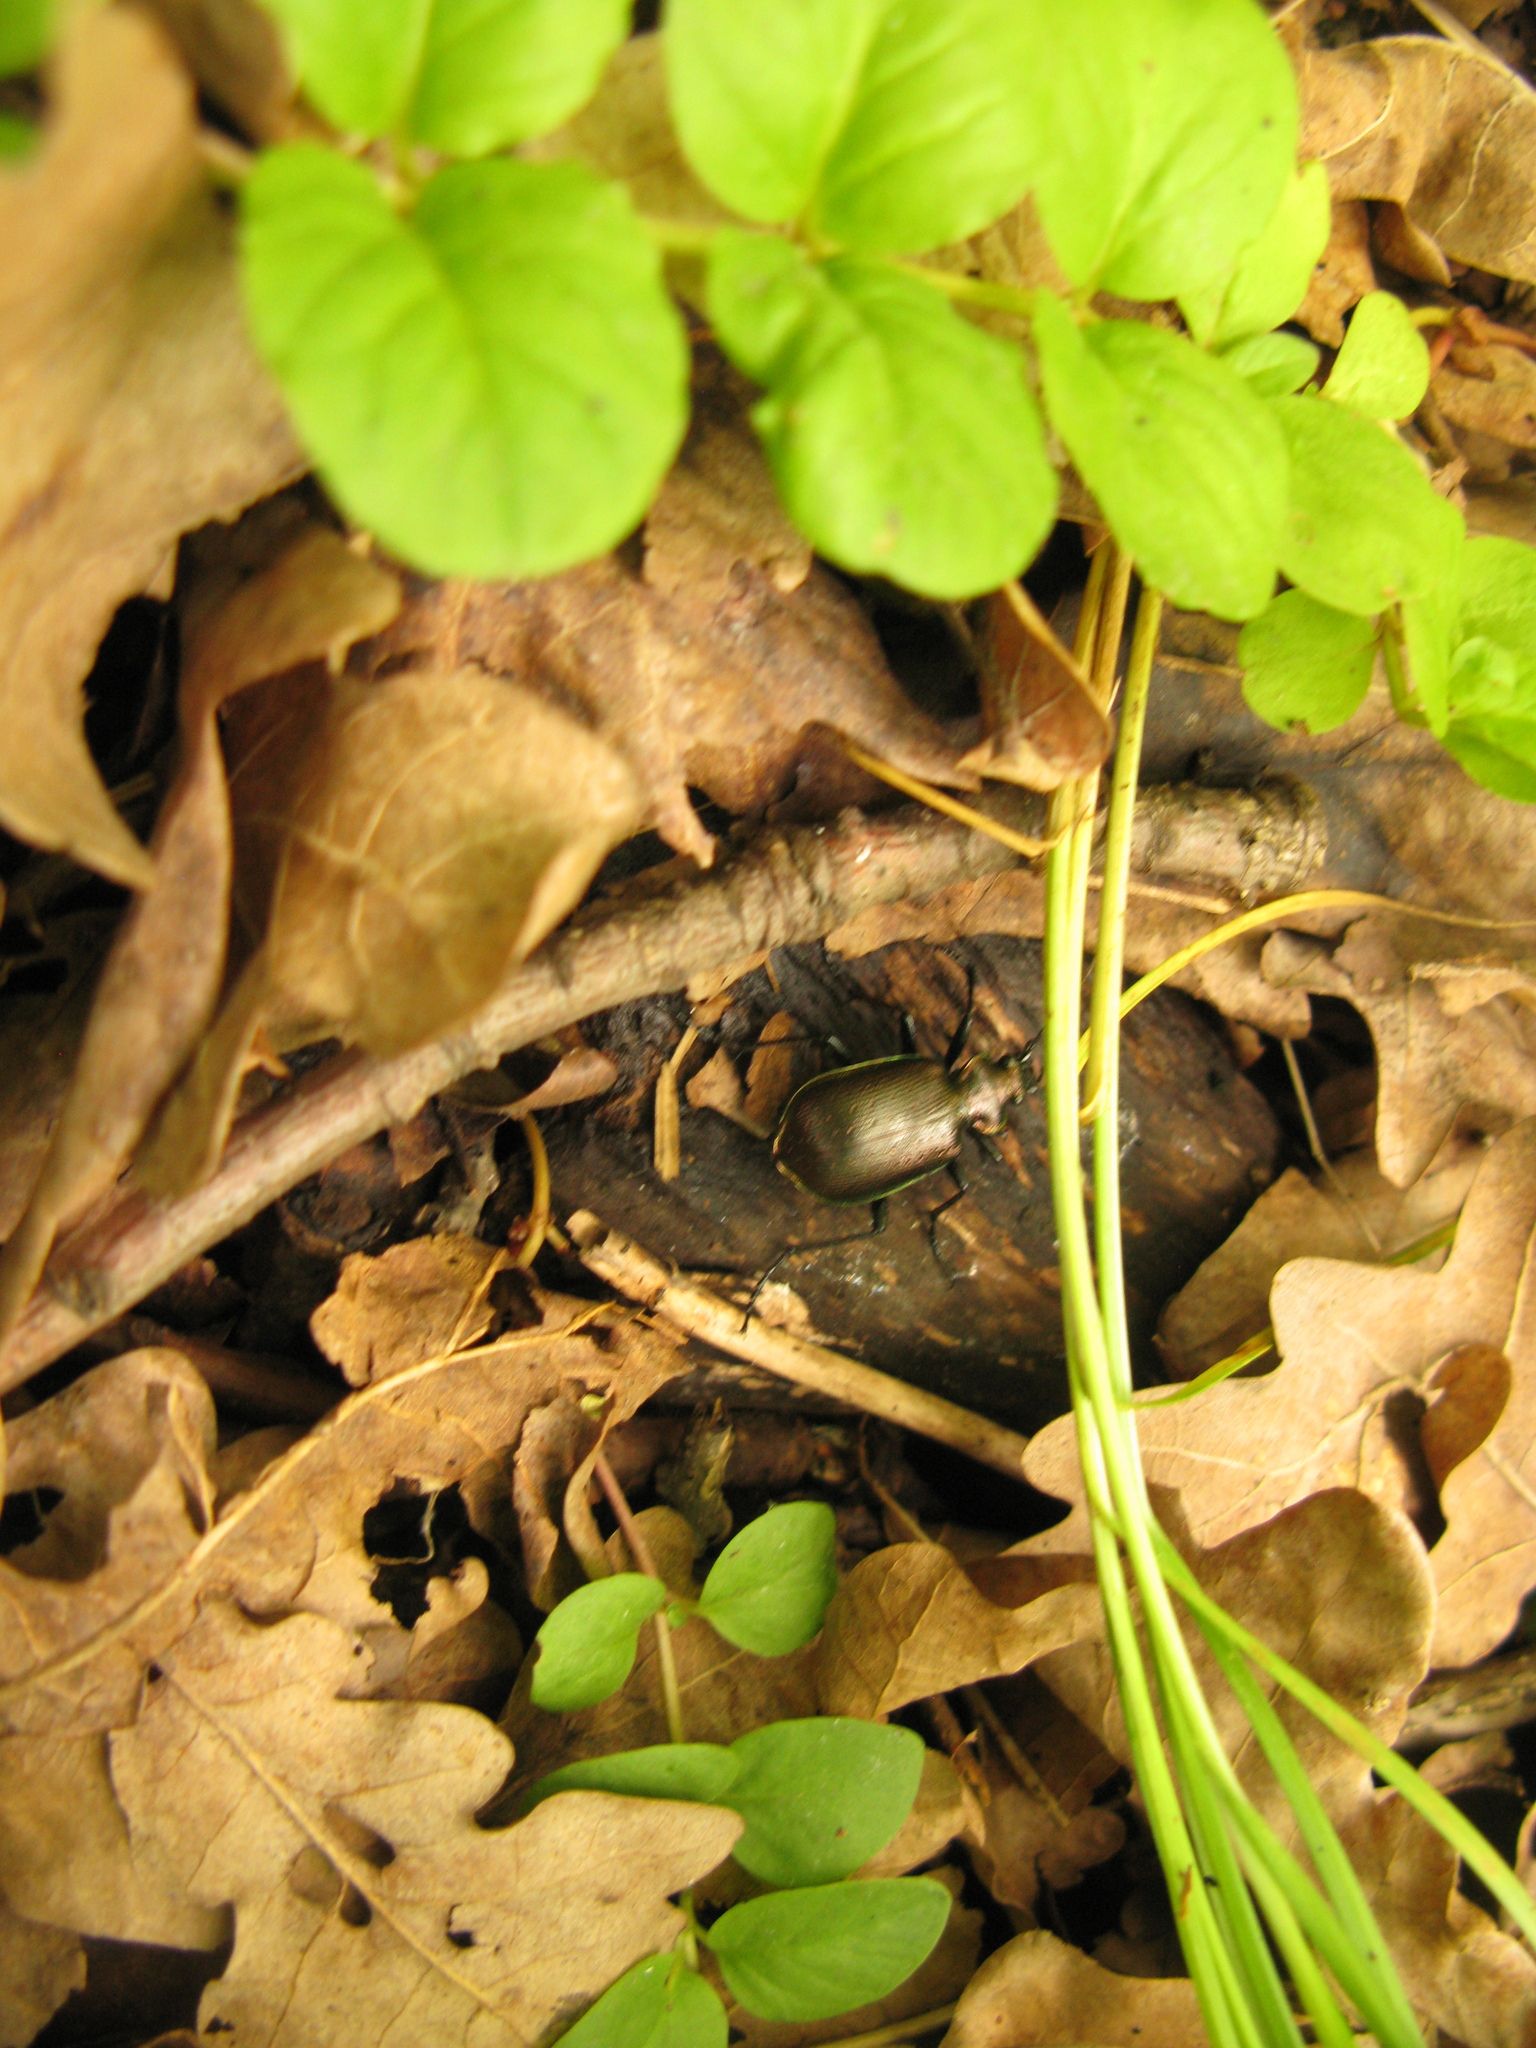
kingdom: Animalia
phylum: Arthropoda
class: Insecta
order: Coleoptera
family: Carabidae
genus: Calosoma
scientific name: Calosoma inquisitor
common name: Caterpillar-hunter
